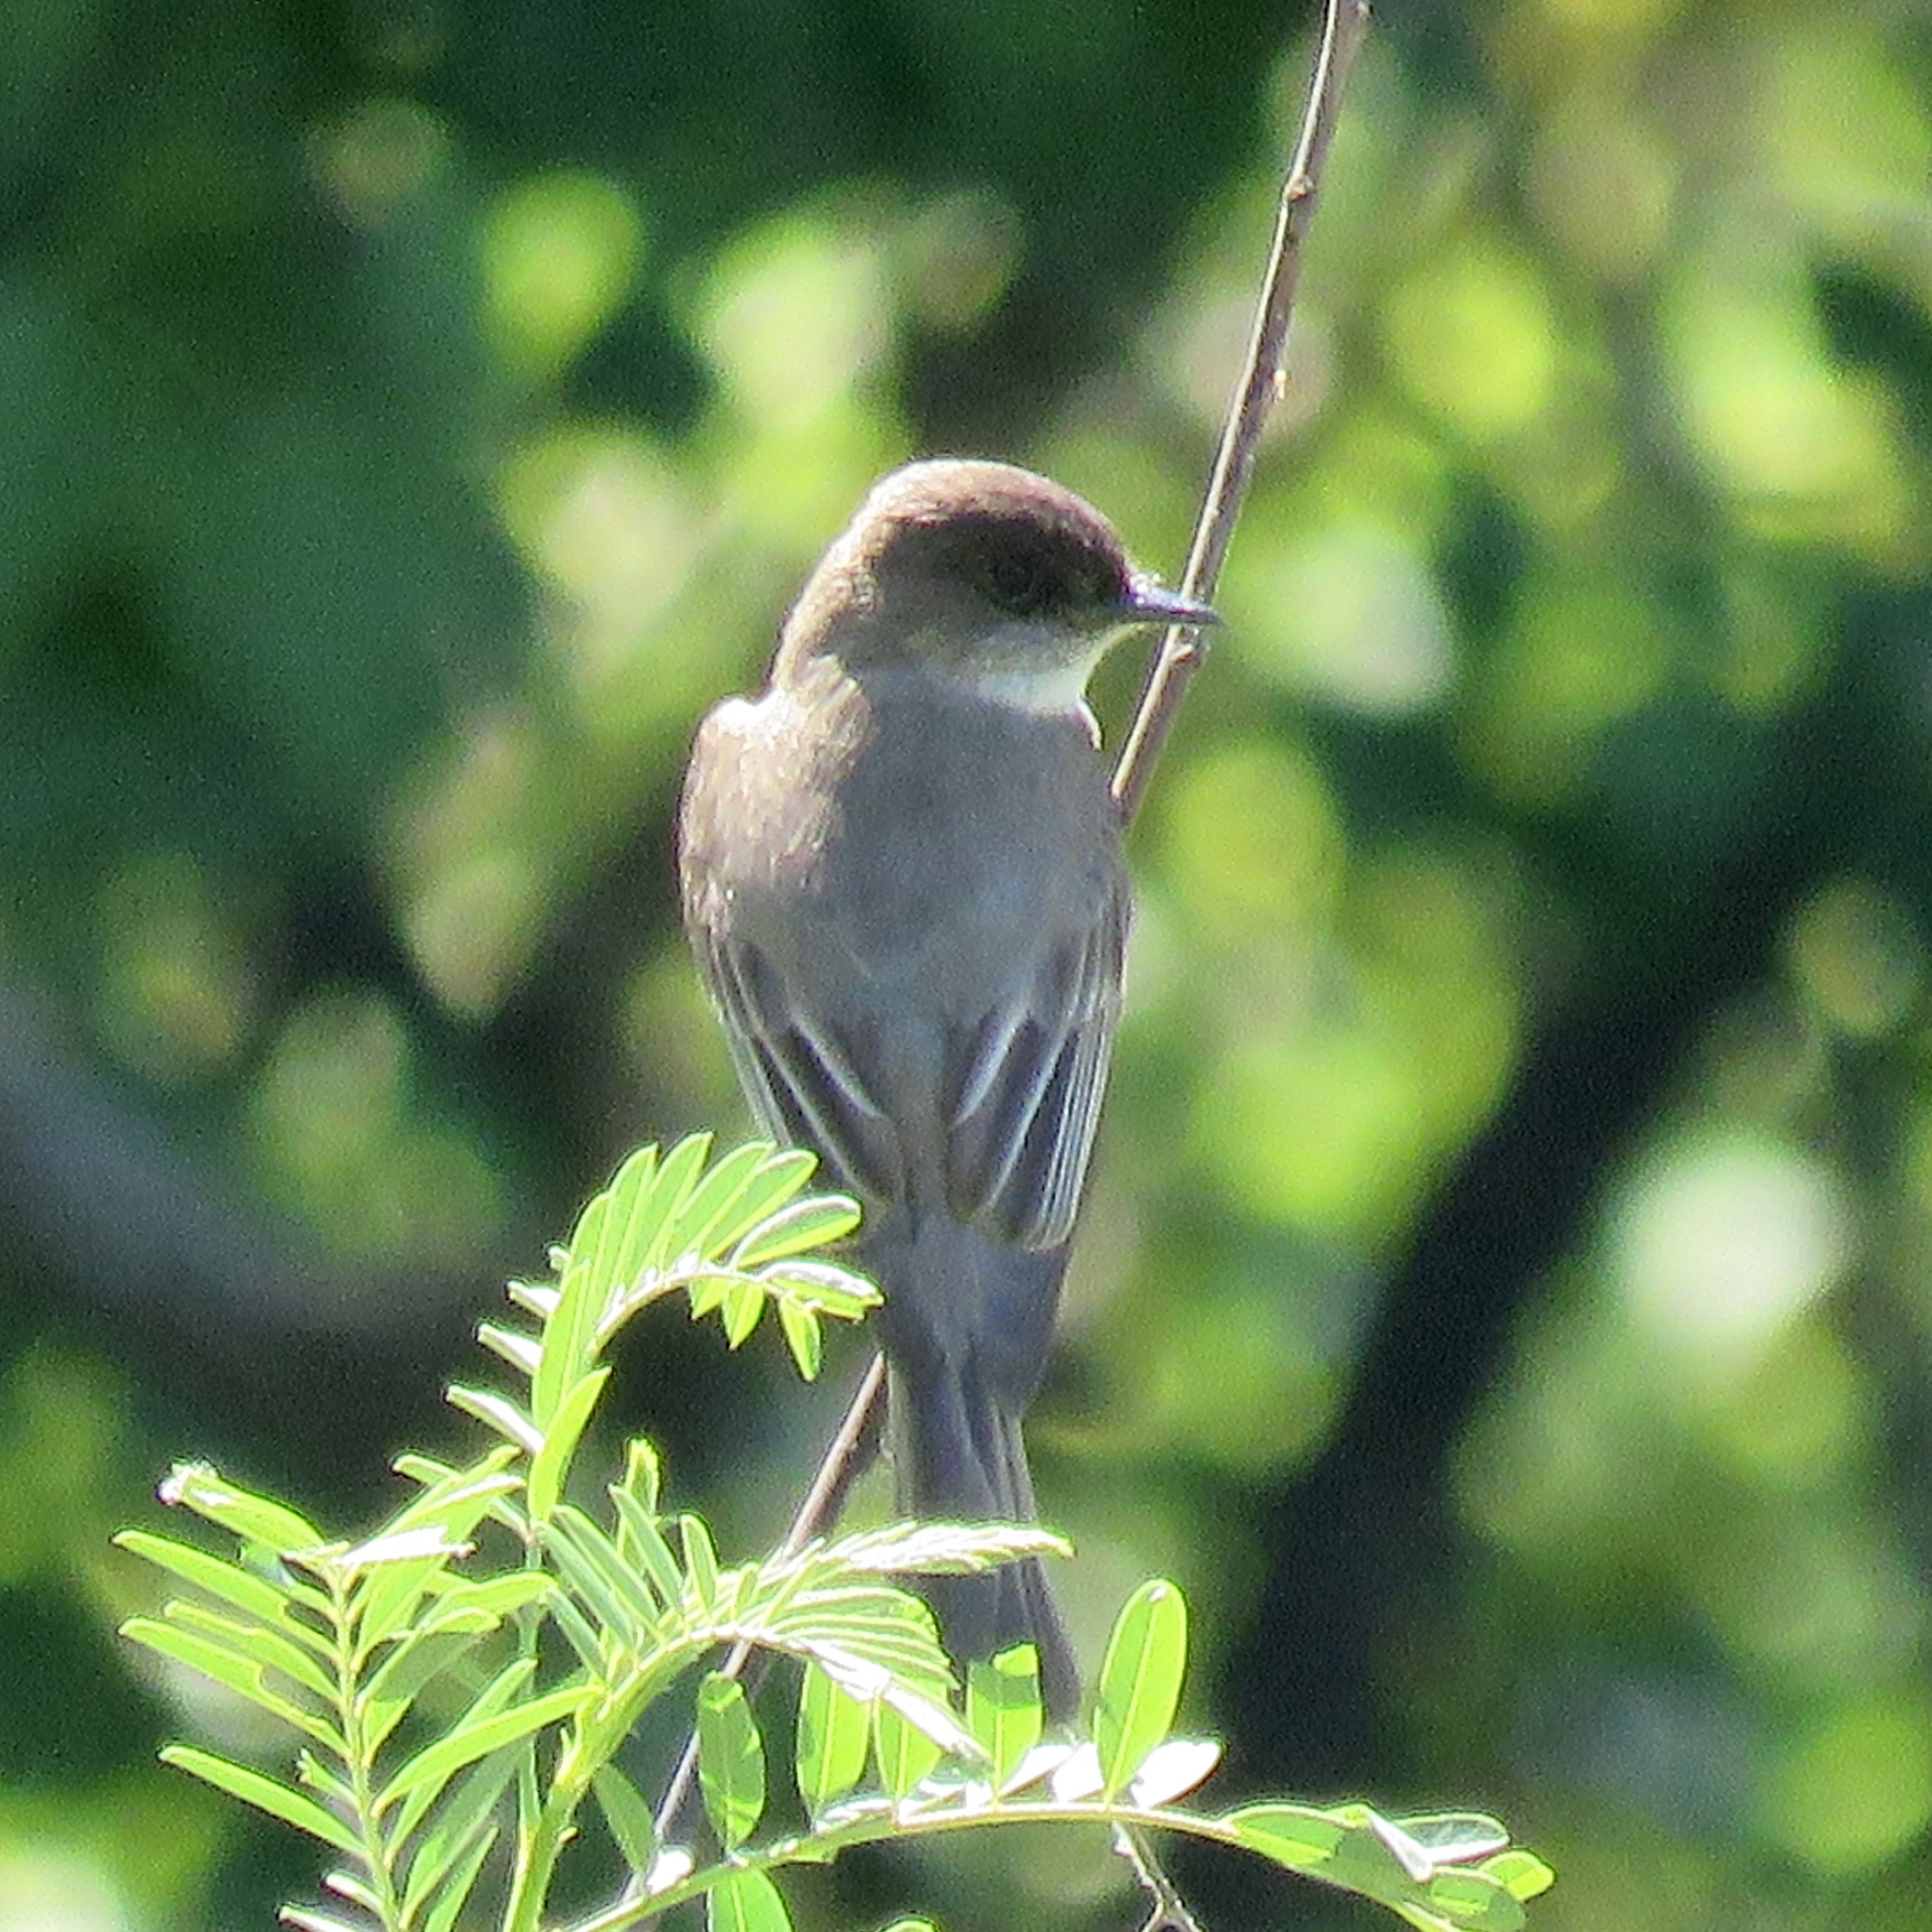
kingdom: Animalia
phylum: Chordata
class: Aves
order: Passeriformes
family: Tyrannidae
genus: Sayornis
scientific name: Sayornis phoebe
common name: Eastern phoebe
